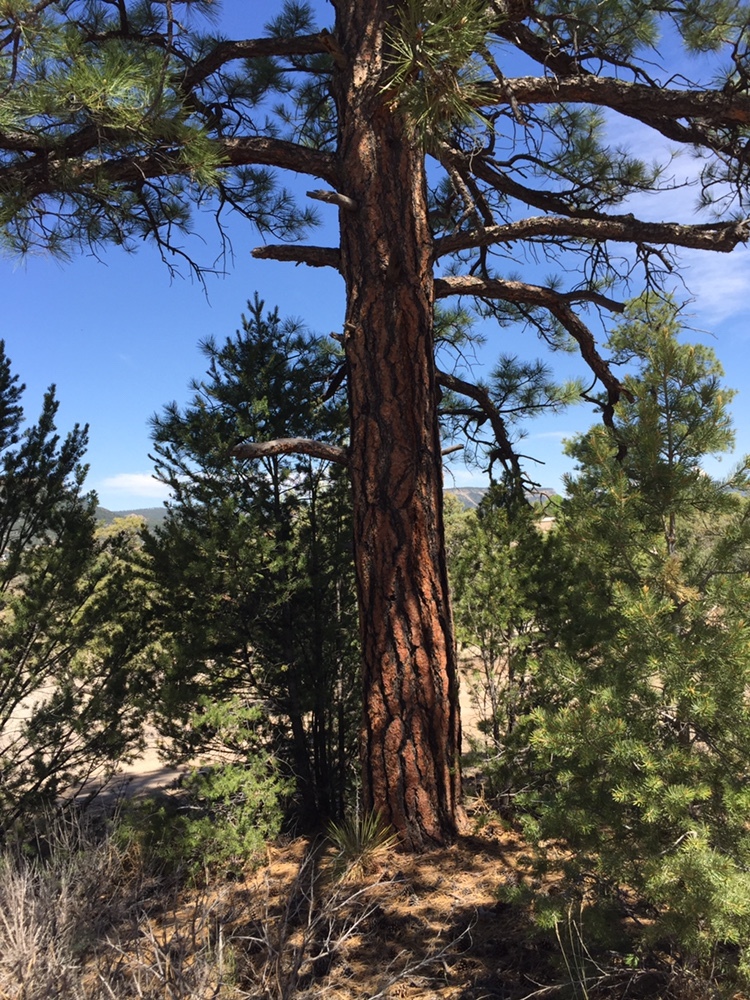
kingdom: Plantae
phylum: Tracheophyta
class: Pinopsida
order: Pinales
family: Pinaceae
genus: Pinus
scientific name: Pinus ponderosa
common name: Western yellow-pine
